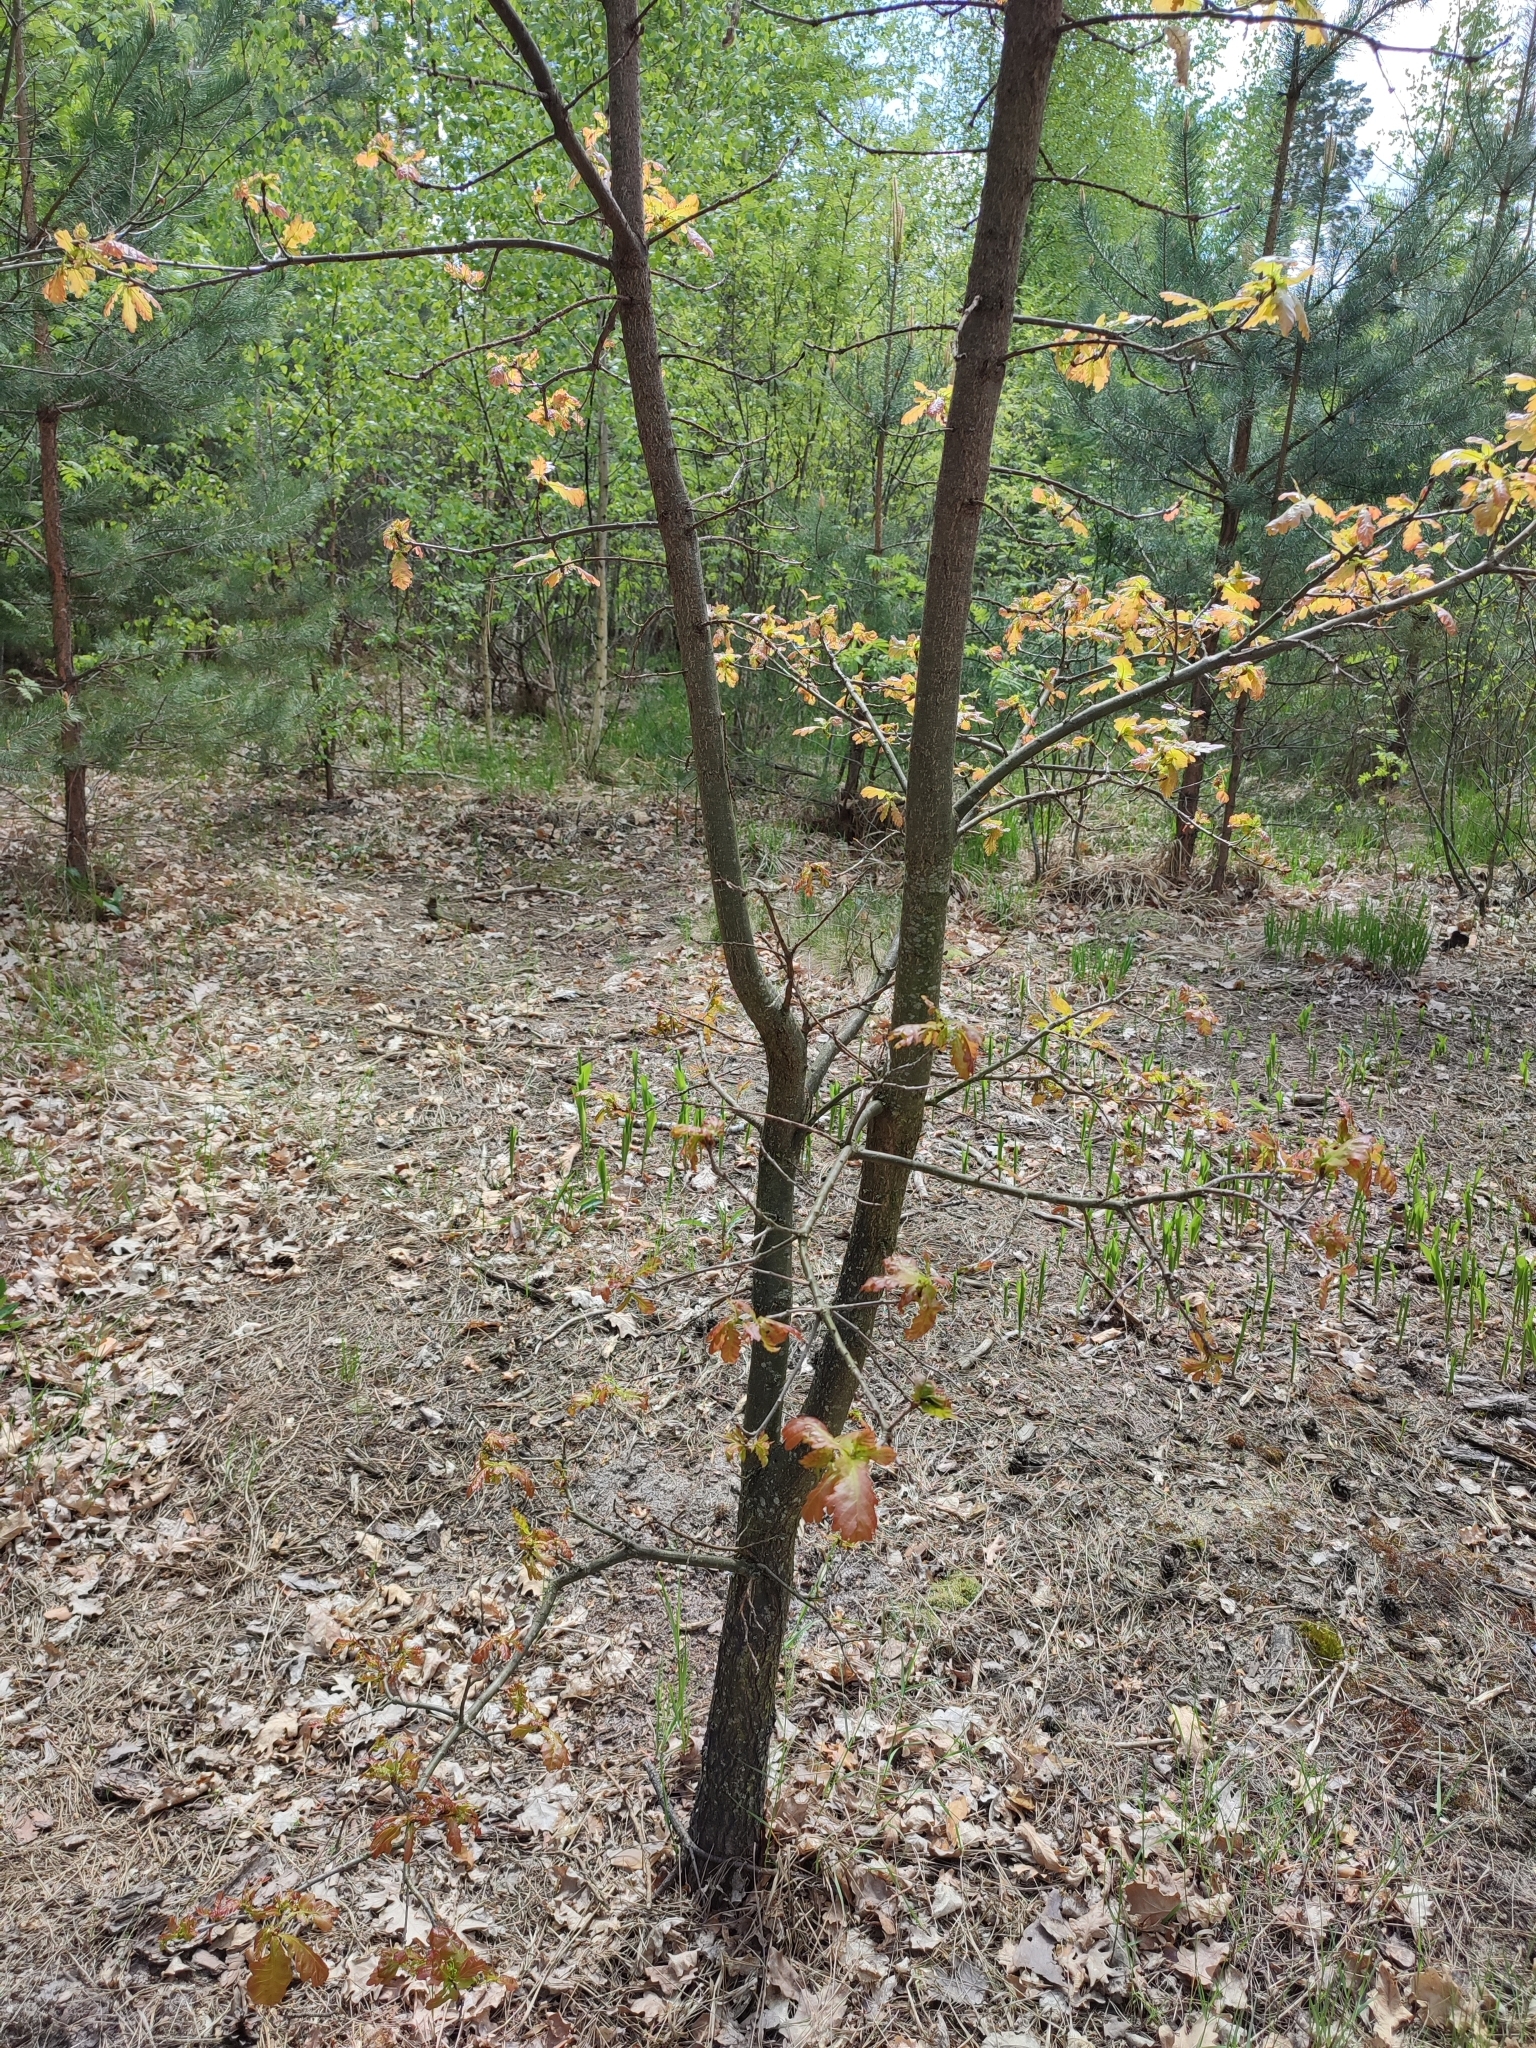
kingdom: Plantae
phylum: Tracheophyta
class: Magnoliopsida
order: Fagales
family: Fagaceae
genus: Quercus
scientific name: Quercus robur
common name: Pedunculate oak
